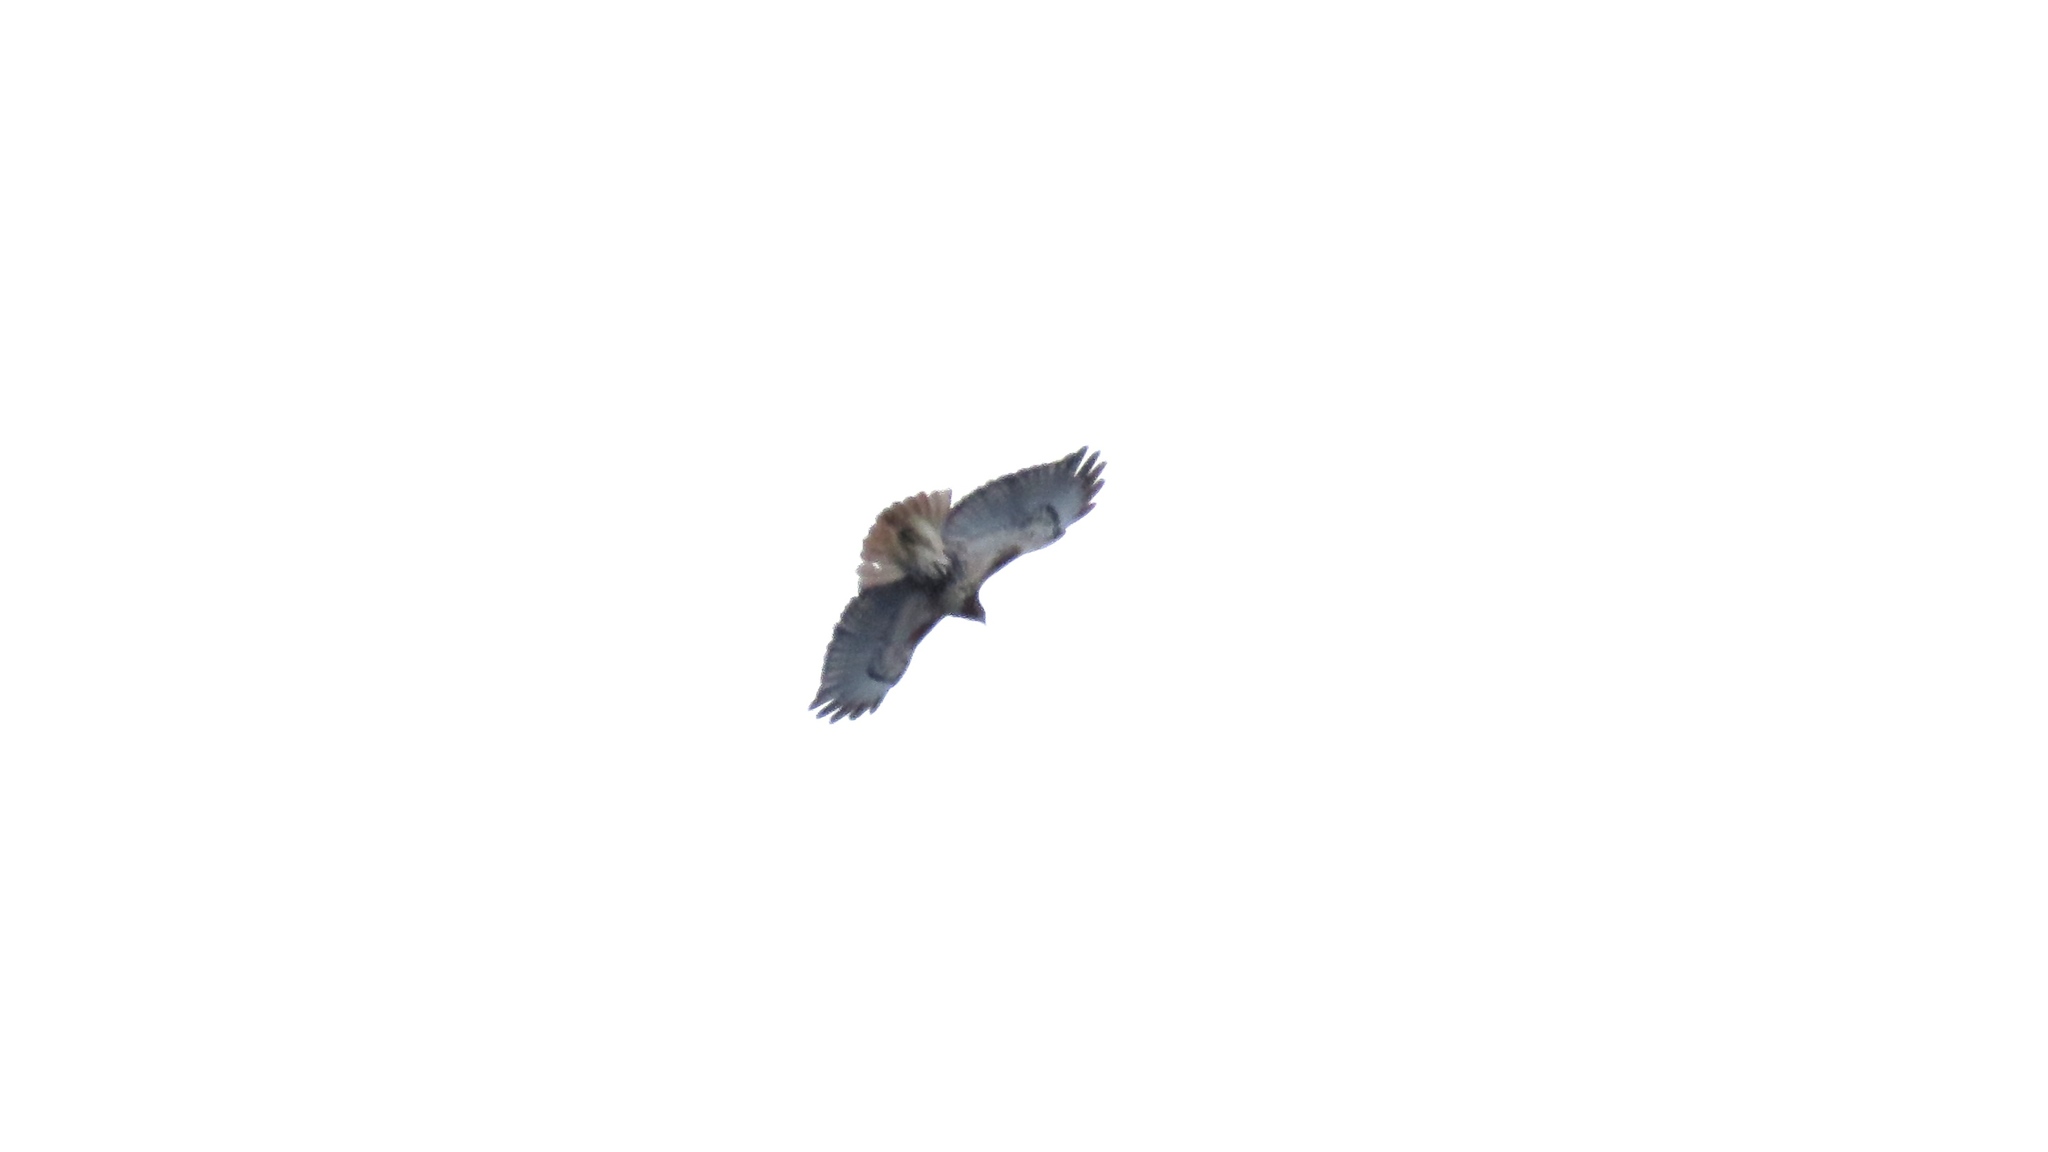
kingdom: Animalia
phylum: Chordata
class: Aves
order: Accipitriformes
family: Accipitridae
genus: Buteo
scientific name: Buteo jamaicensis
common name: Red-tailed hawk
